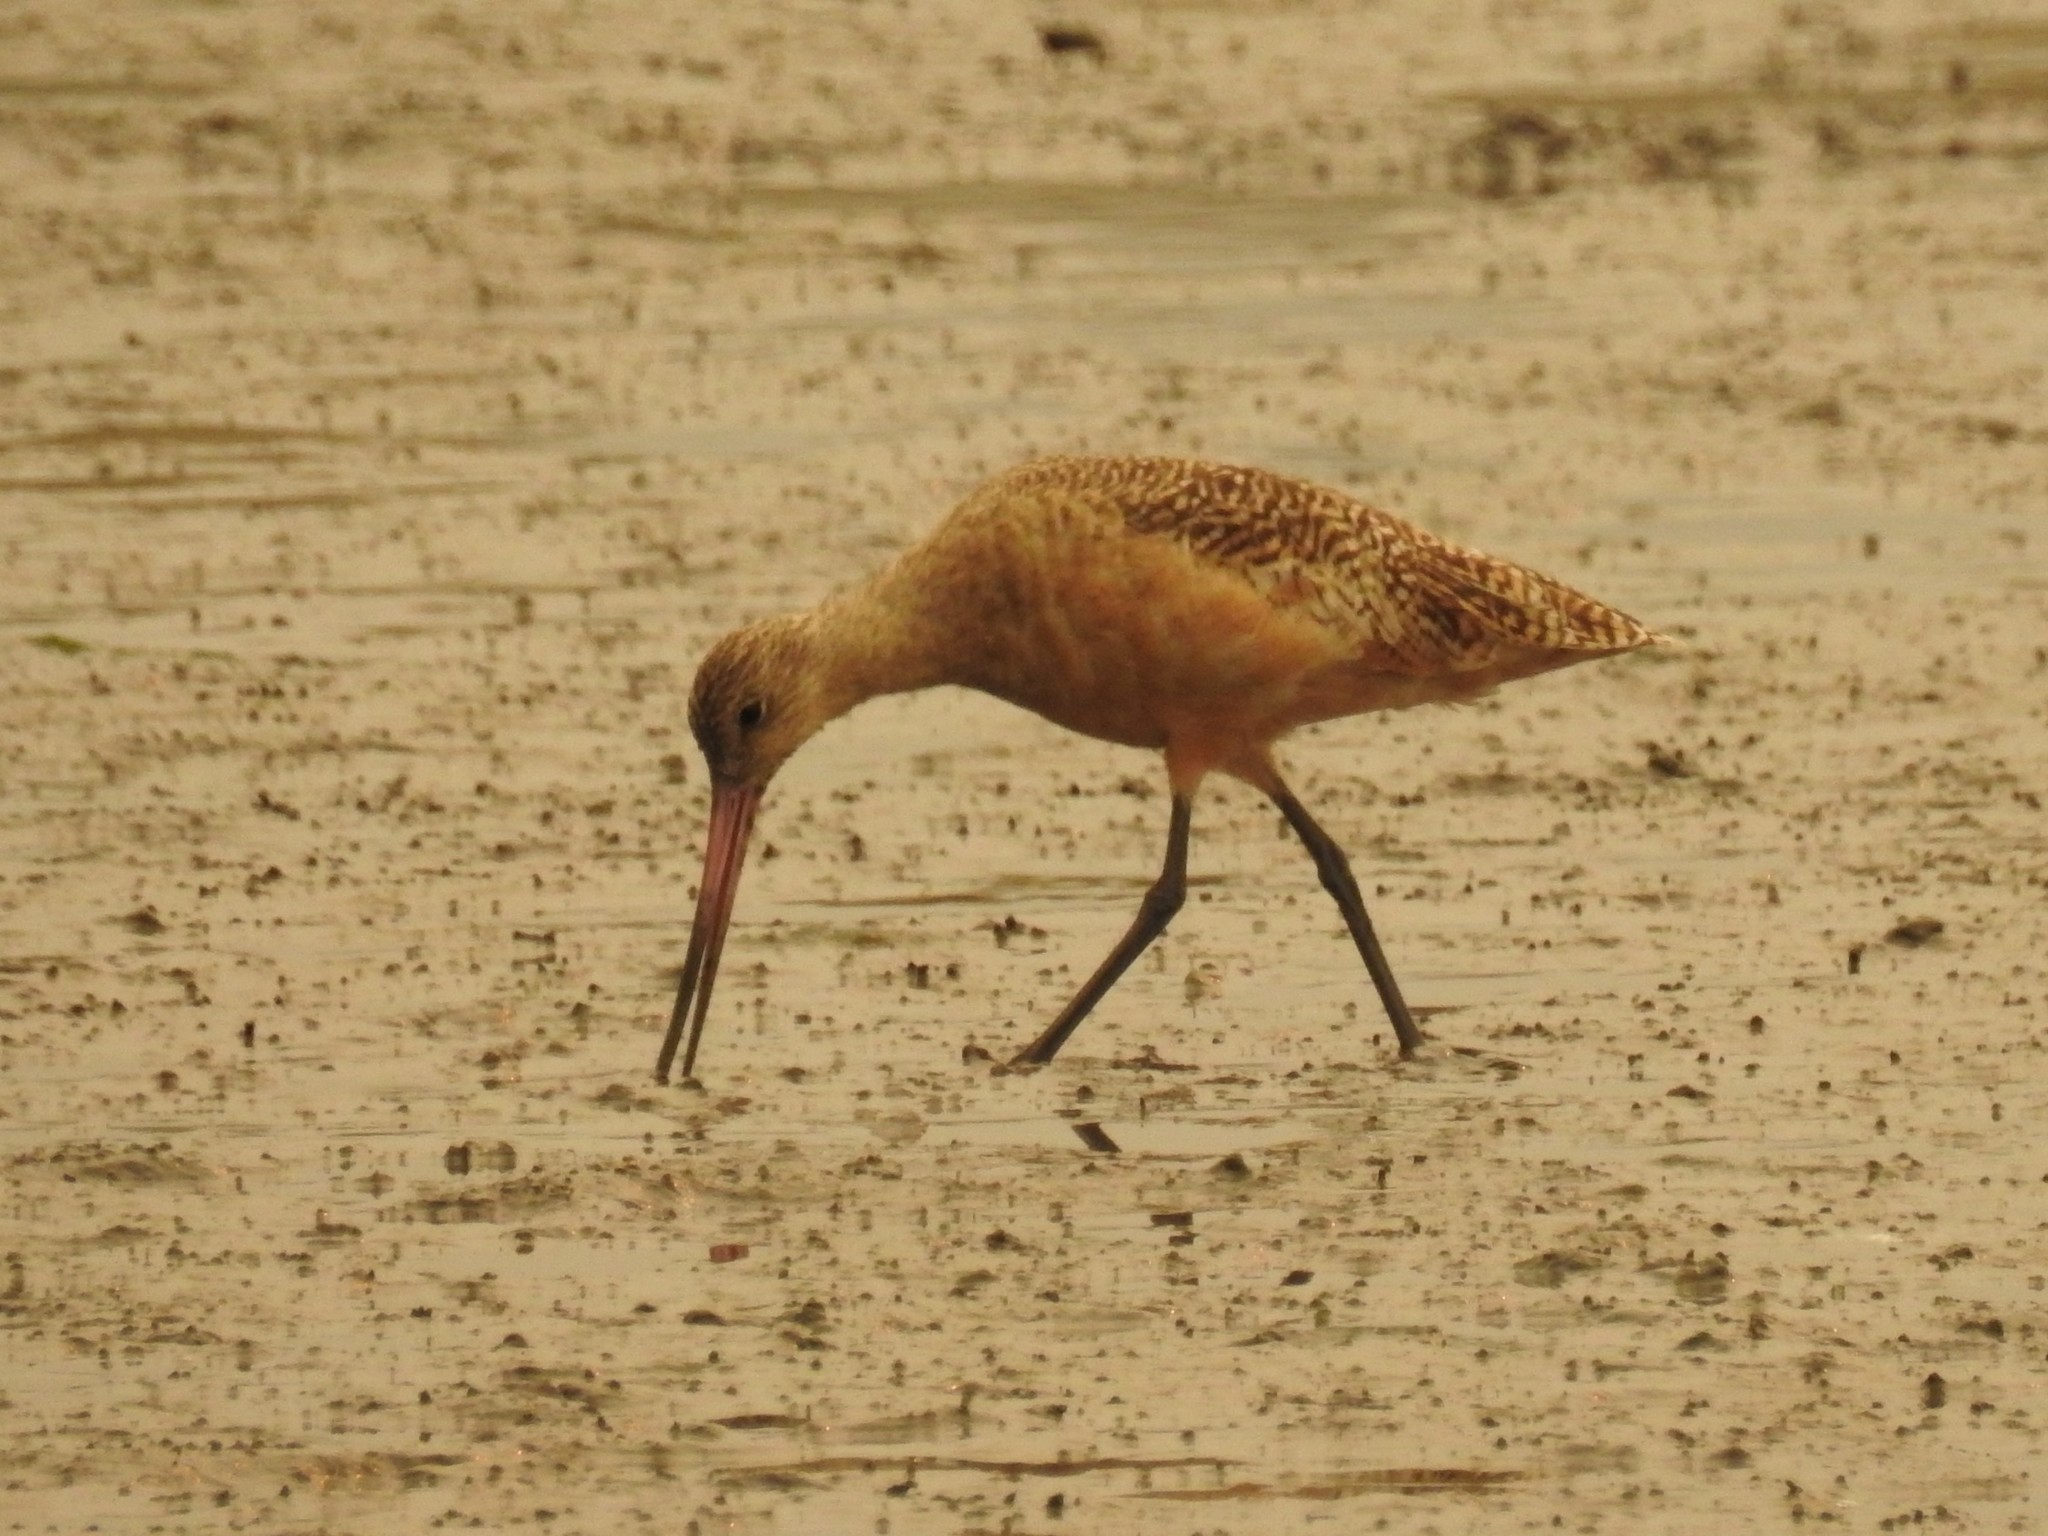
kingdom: Animalia
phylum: Chordata
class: Aves
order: Charadriiformes
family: Scolopacidae
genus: Limosa
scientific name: Limosa fedoa
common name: Marbled godwit
